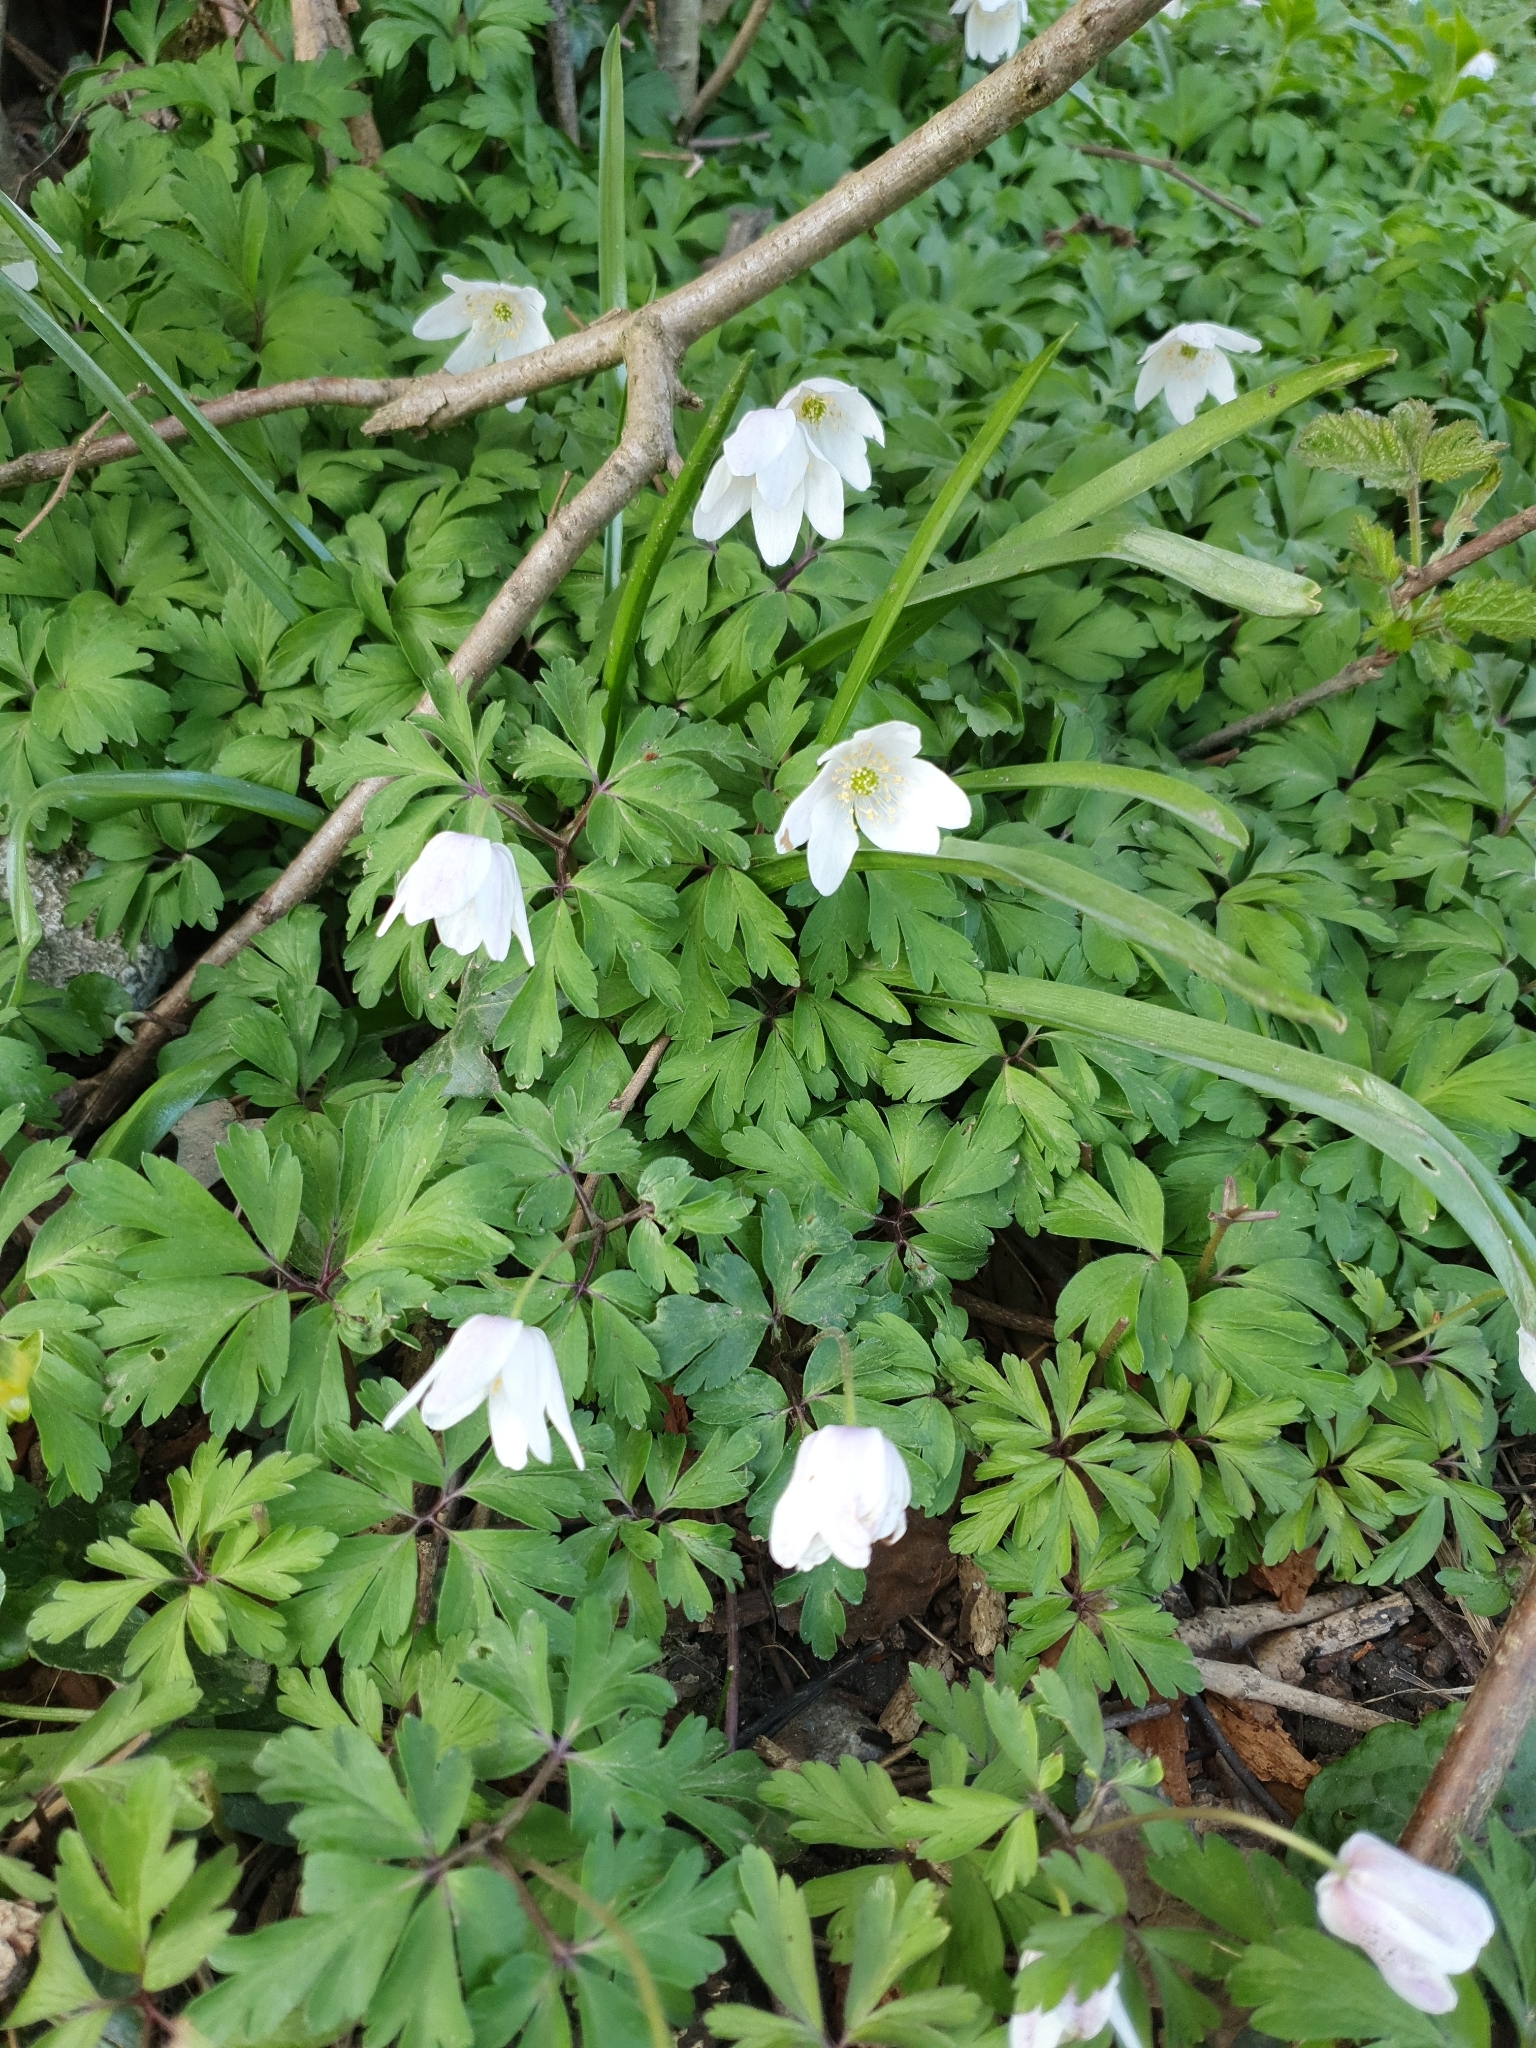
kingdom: Plantae
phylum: Tracheophyta
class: Magnoliopsida
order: Ranunculales
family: Ranunculaceae
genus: Anemone
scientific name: Anemone nemorosa
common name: Wood anemone
